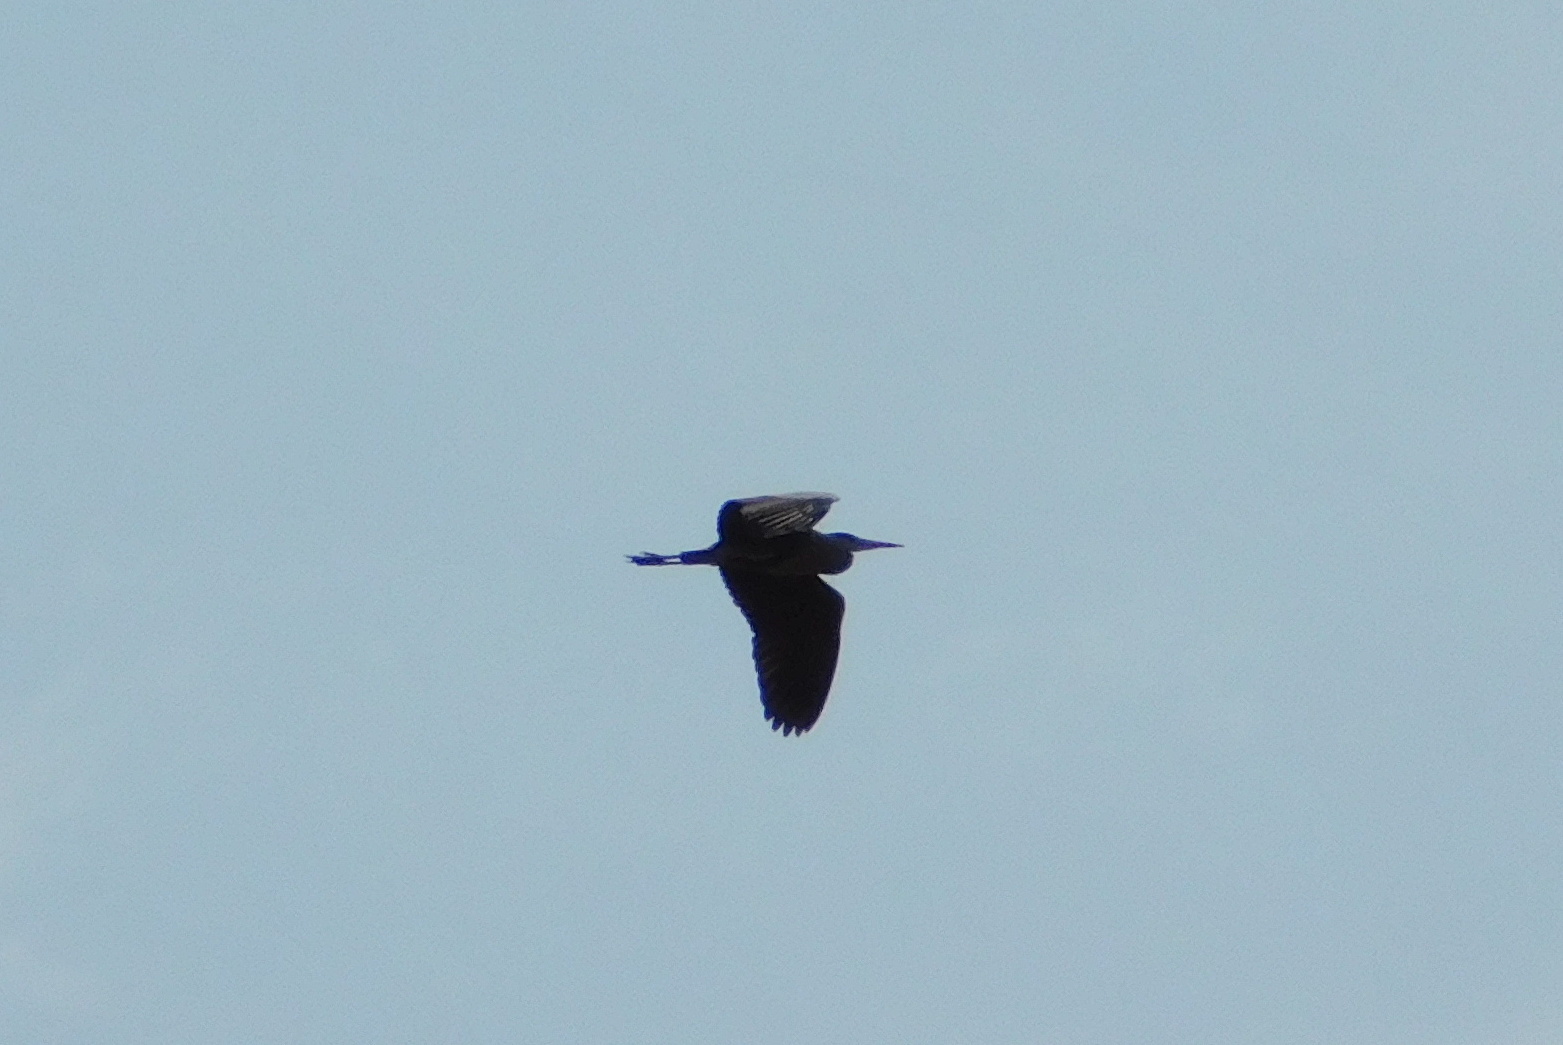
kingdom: Animalia
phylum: Chordata
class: Aves
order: Pelecaniformes
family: Ardeidae
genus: Ardea
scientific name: Ardea cinerea
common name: Grey heron
